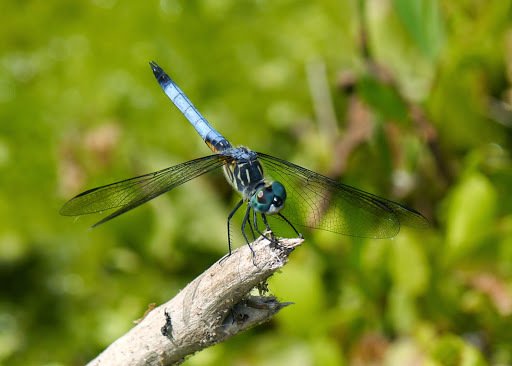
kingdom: Animalia
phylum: Arthropoda
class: Insecta
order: Odonata
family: Libellulidae
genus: Pachydiplax
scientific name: Pachydiplax longipennis
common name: Blue dasher
